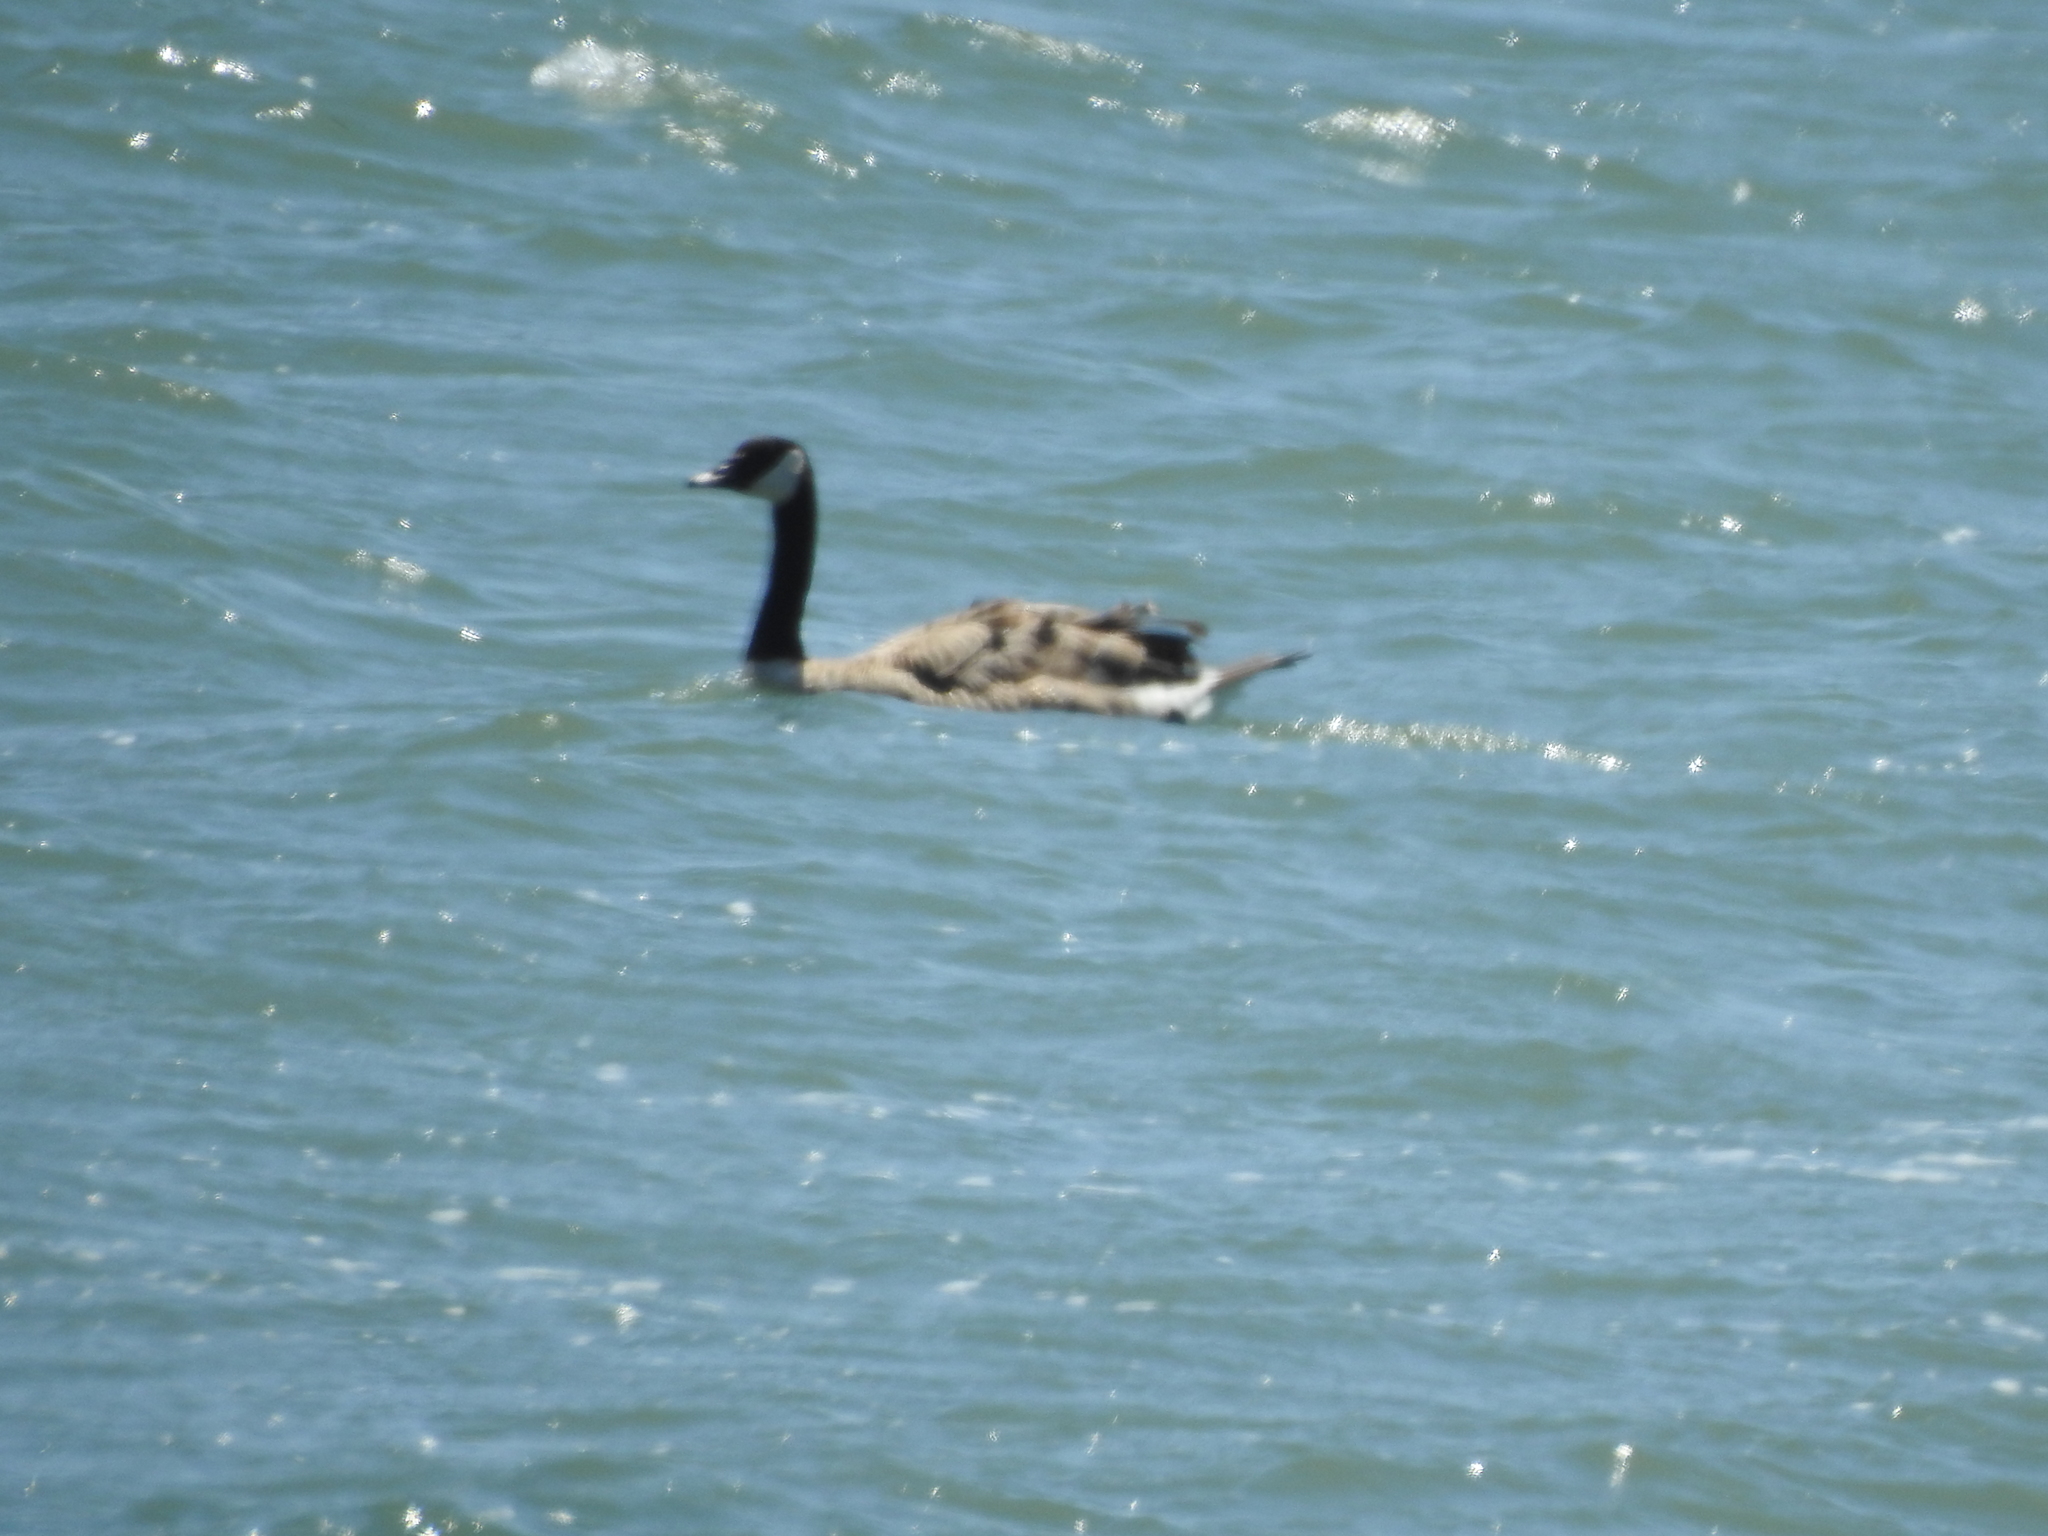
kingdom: Animalia
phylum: Chordata
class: Aves
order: Anseriformes
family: Anatidae
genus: Branta
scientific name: Branta canadensis
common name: Canada goose
